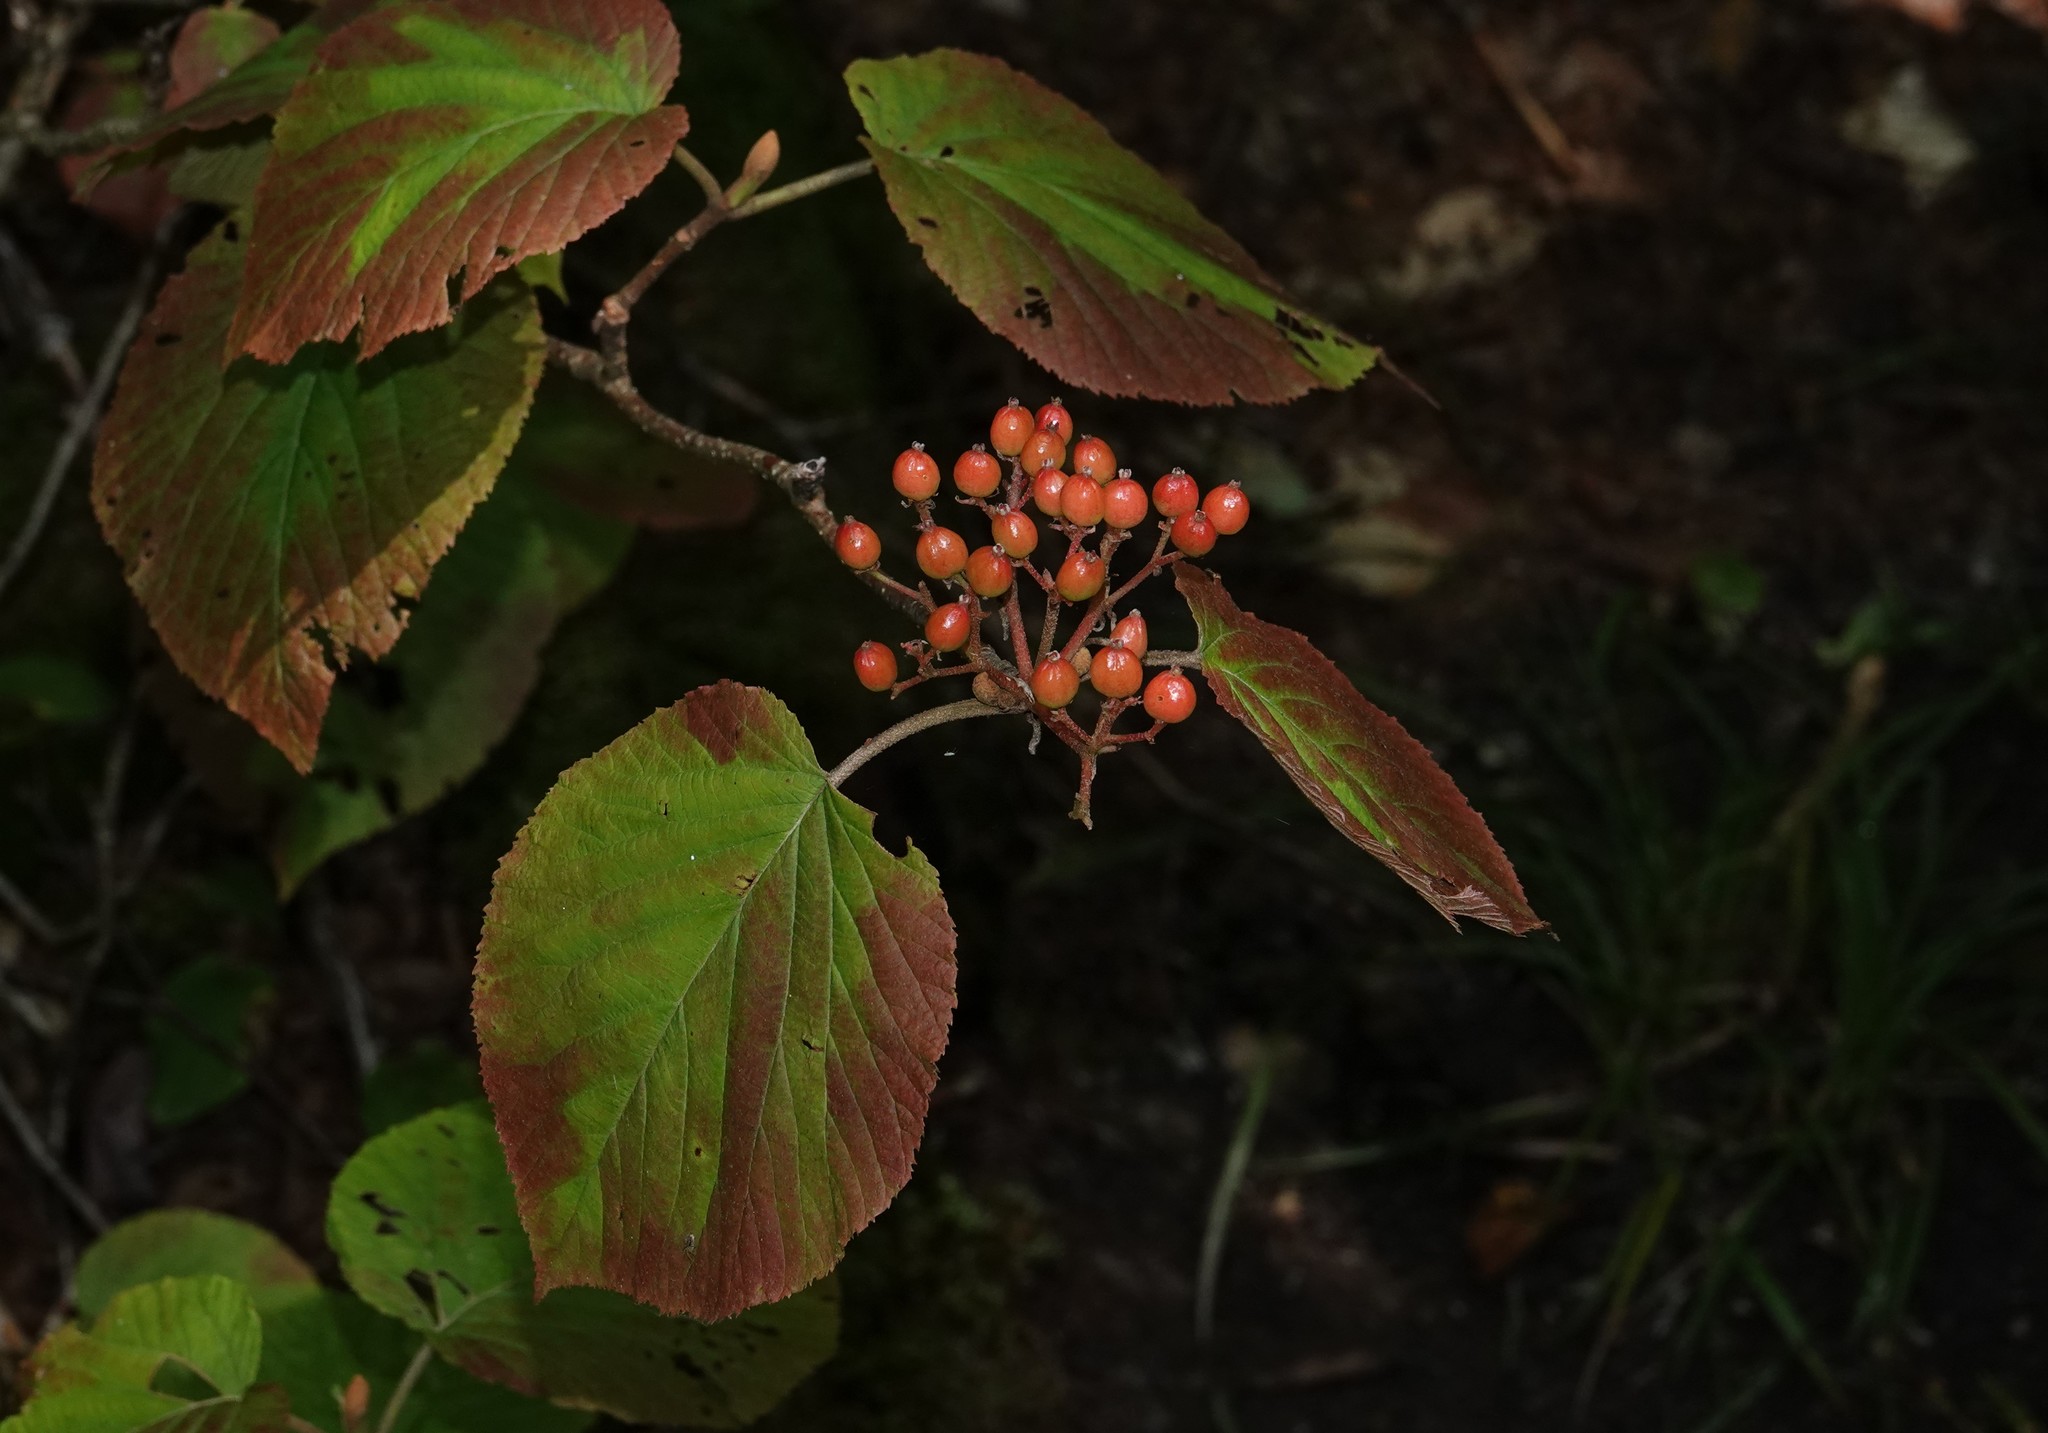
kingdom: Plantae
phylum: Tracheophyta
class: Magnoliopsida
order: Dipsacales
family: Viburnaceae
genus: Viburnum
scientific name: Viburnum lantanoides
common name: Hobblebush
